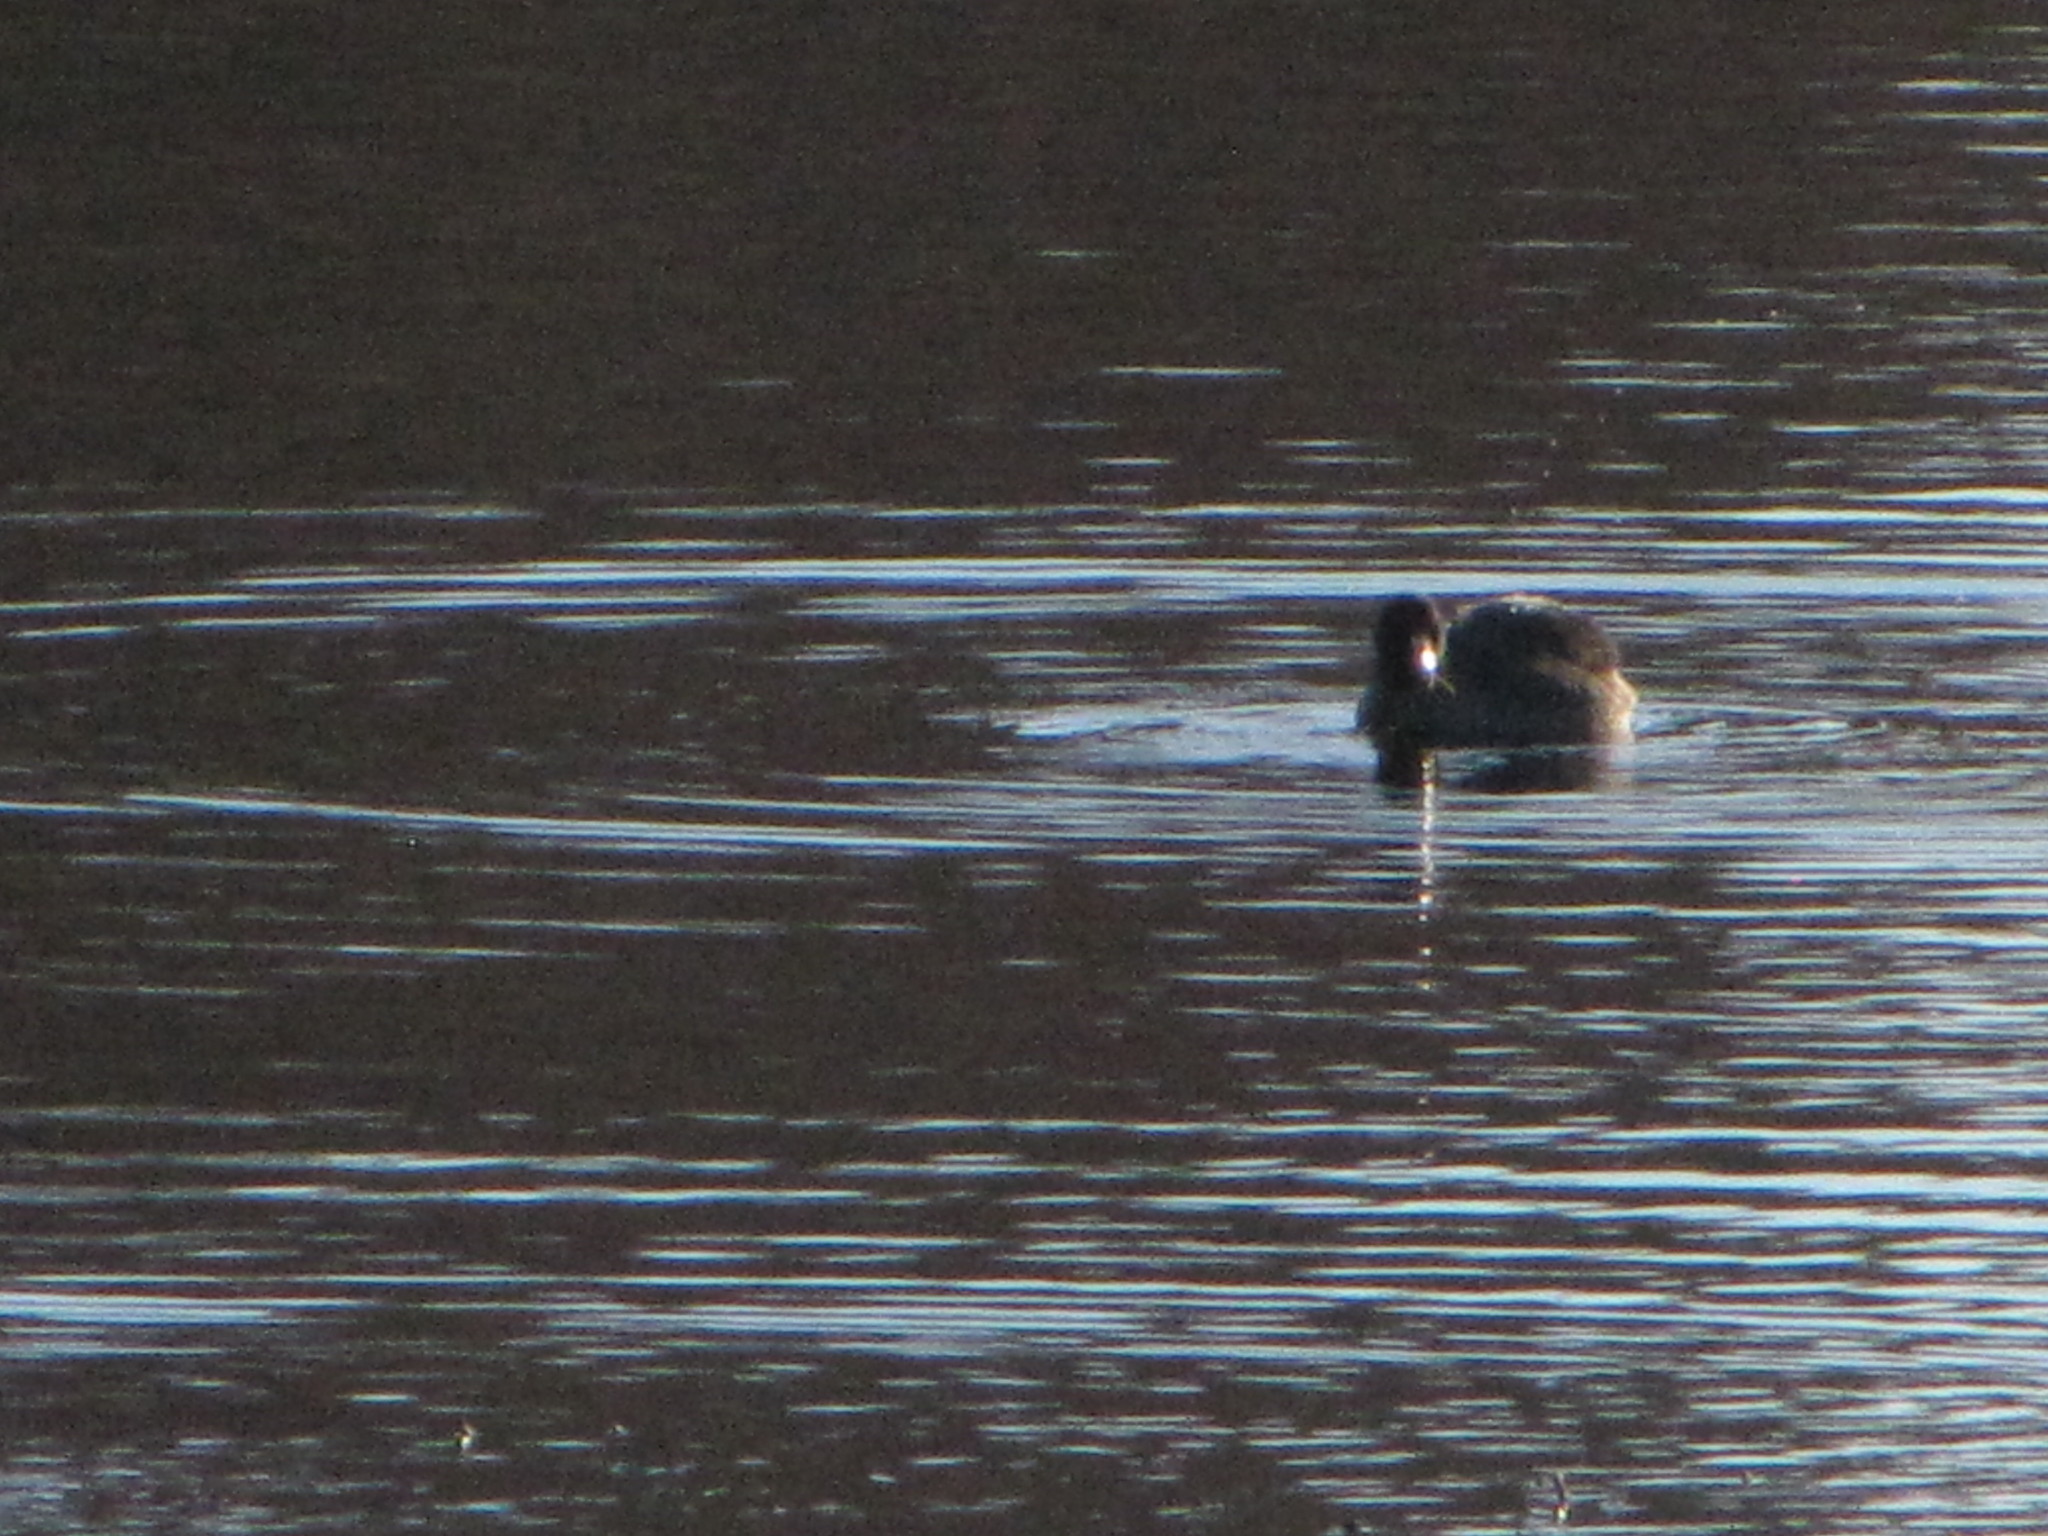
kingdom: Animalia
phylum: Chordata
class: Aves
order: Gruiformes
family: Rallidae
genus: Fulica
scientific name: Fulica americana
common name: American coot
